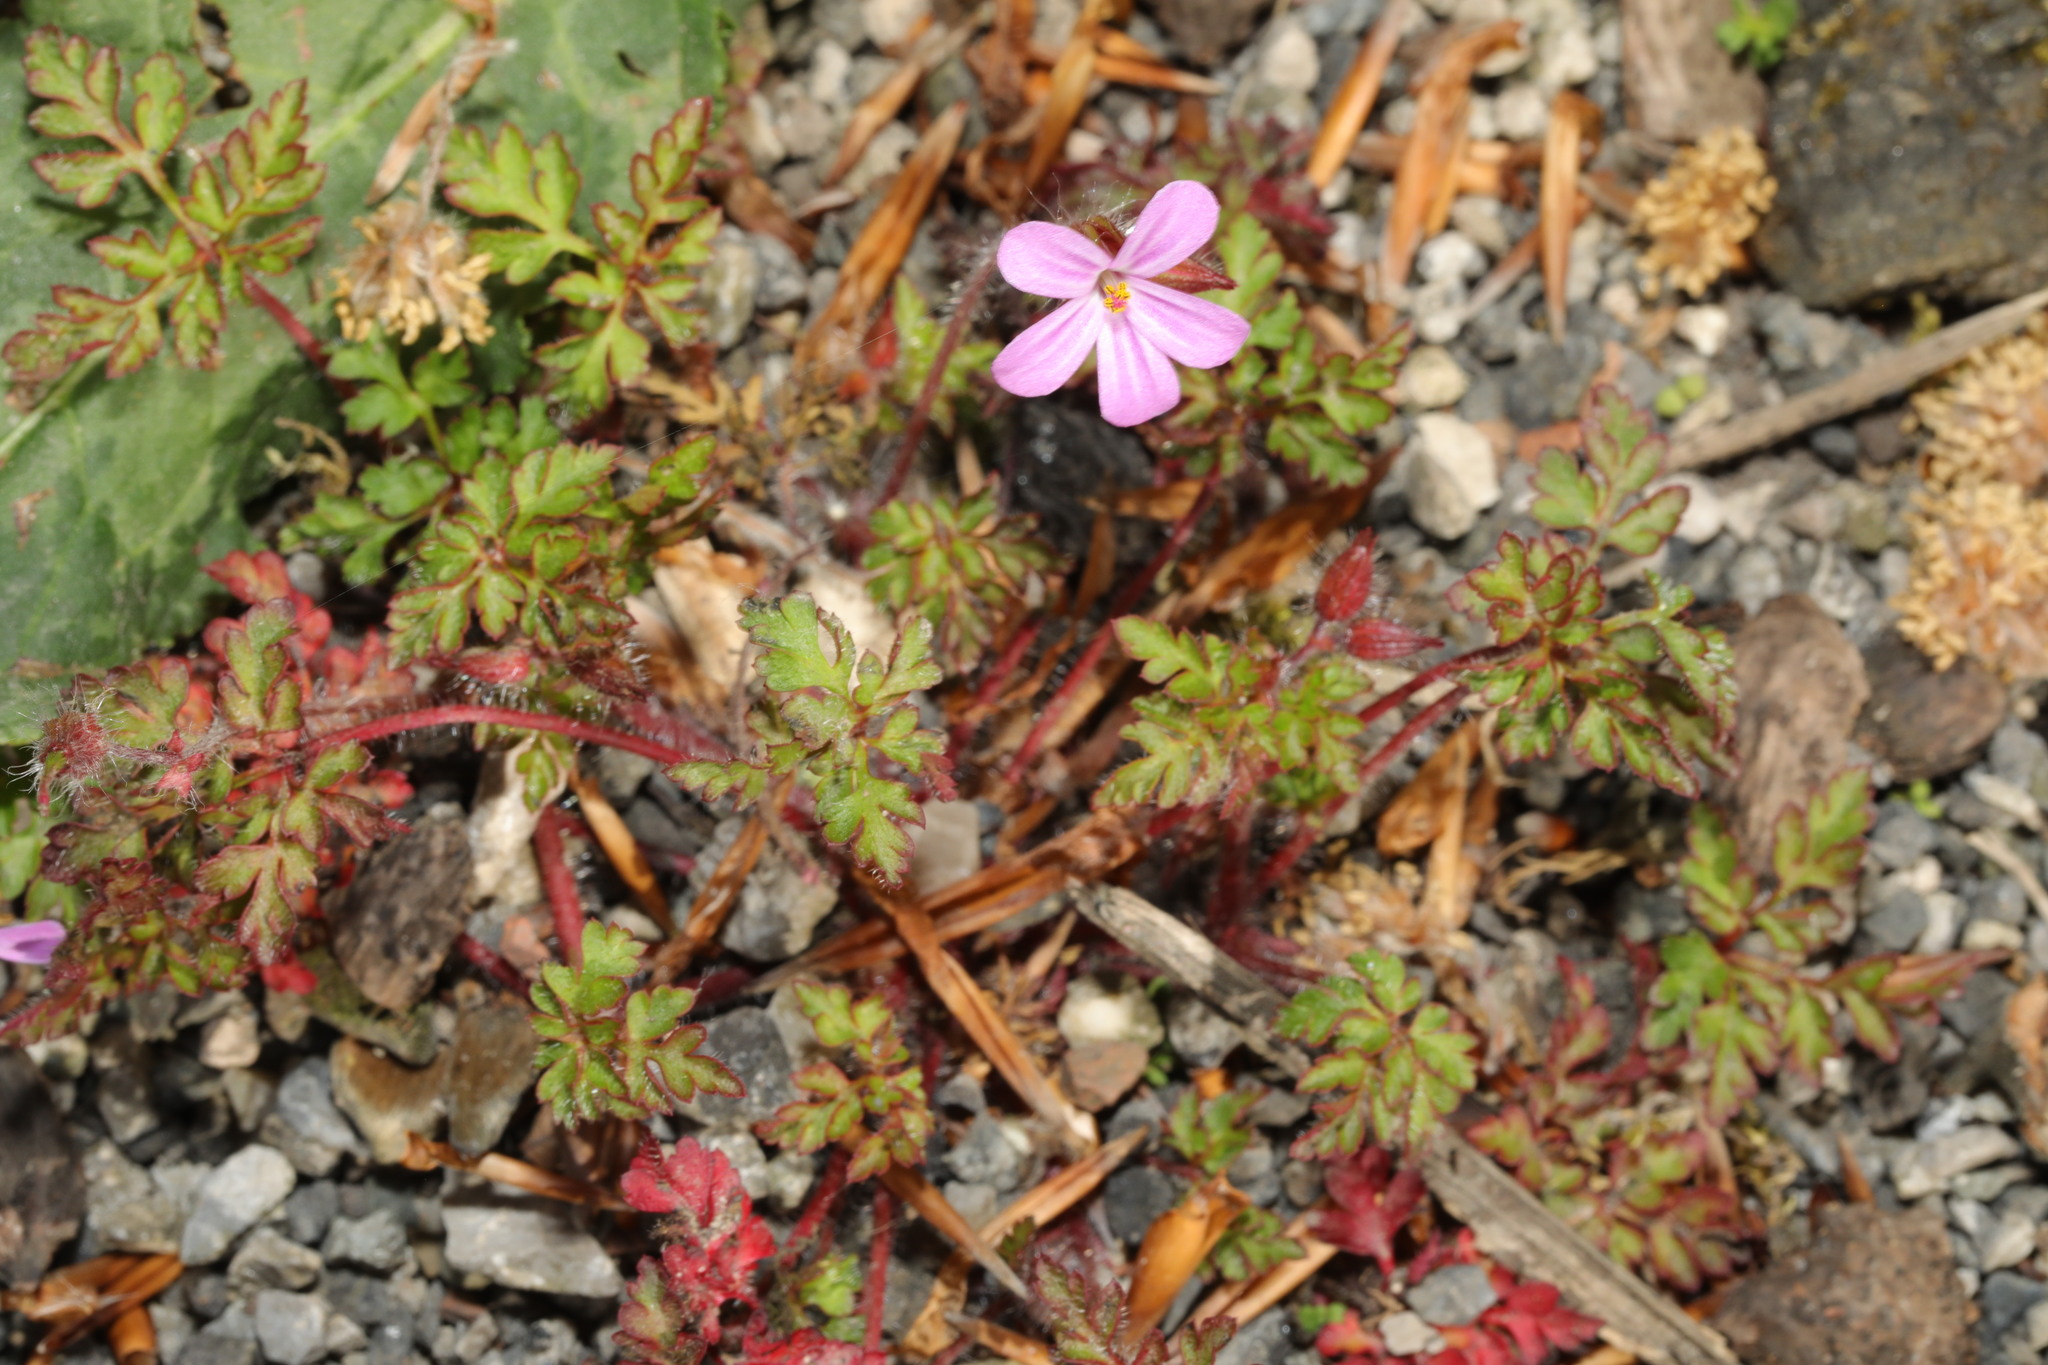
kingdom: Plantae
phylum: Tracheophyta
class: Magnoliopsida
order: Geraniales
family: Geraniaceae
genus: Geranium
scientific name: Geranium robertianum
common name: Herb-robert
